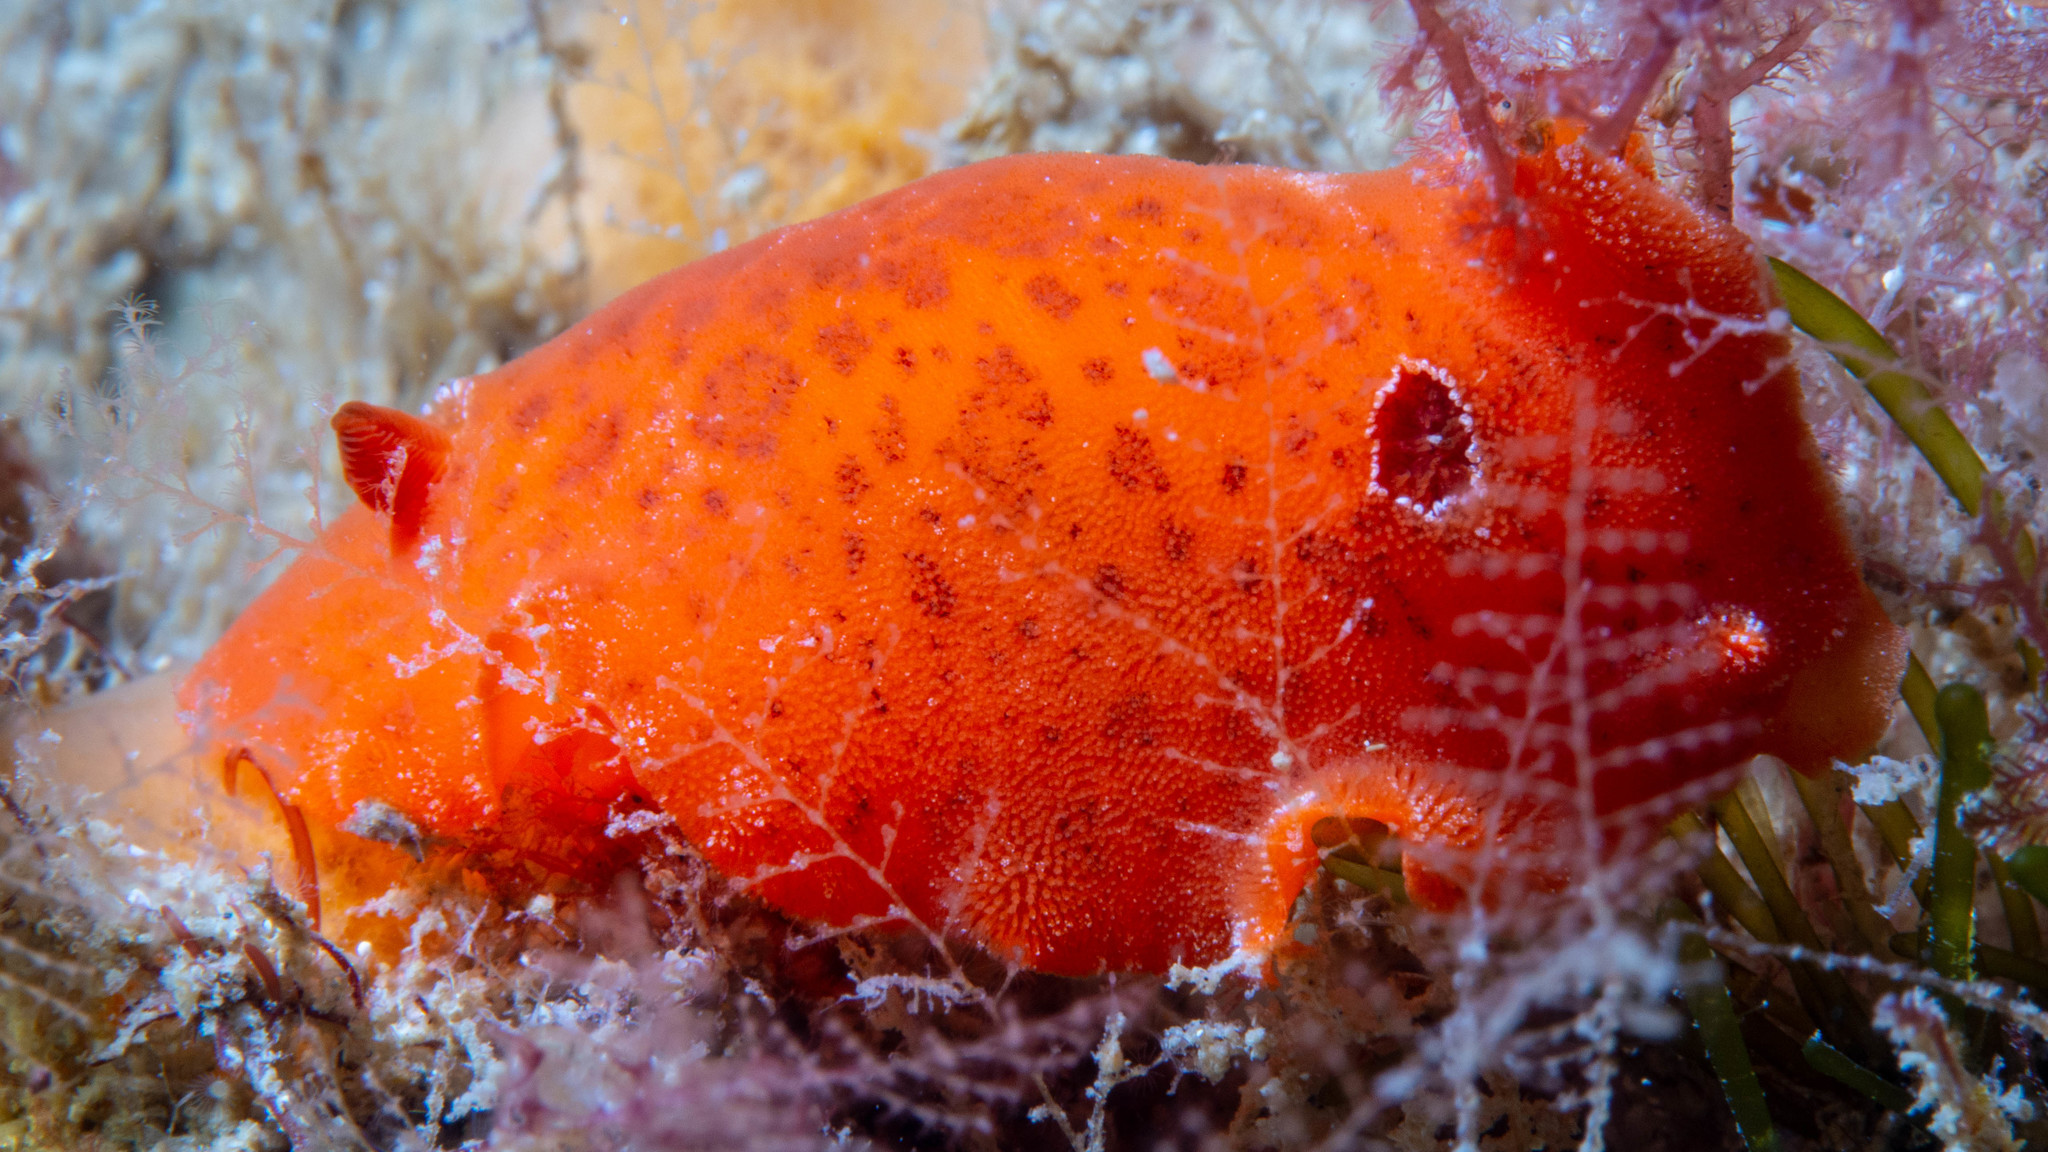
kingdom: Animalia
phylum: Mollusca
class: Gastropoda
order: Nudibranchia
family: Discodorididae
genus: Discodoris
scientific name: Discodoris paroa
